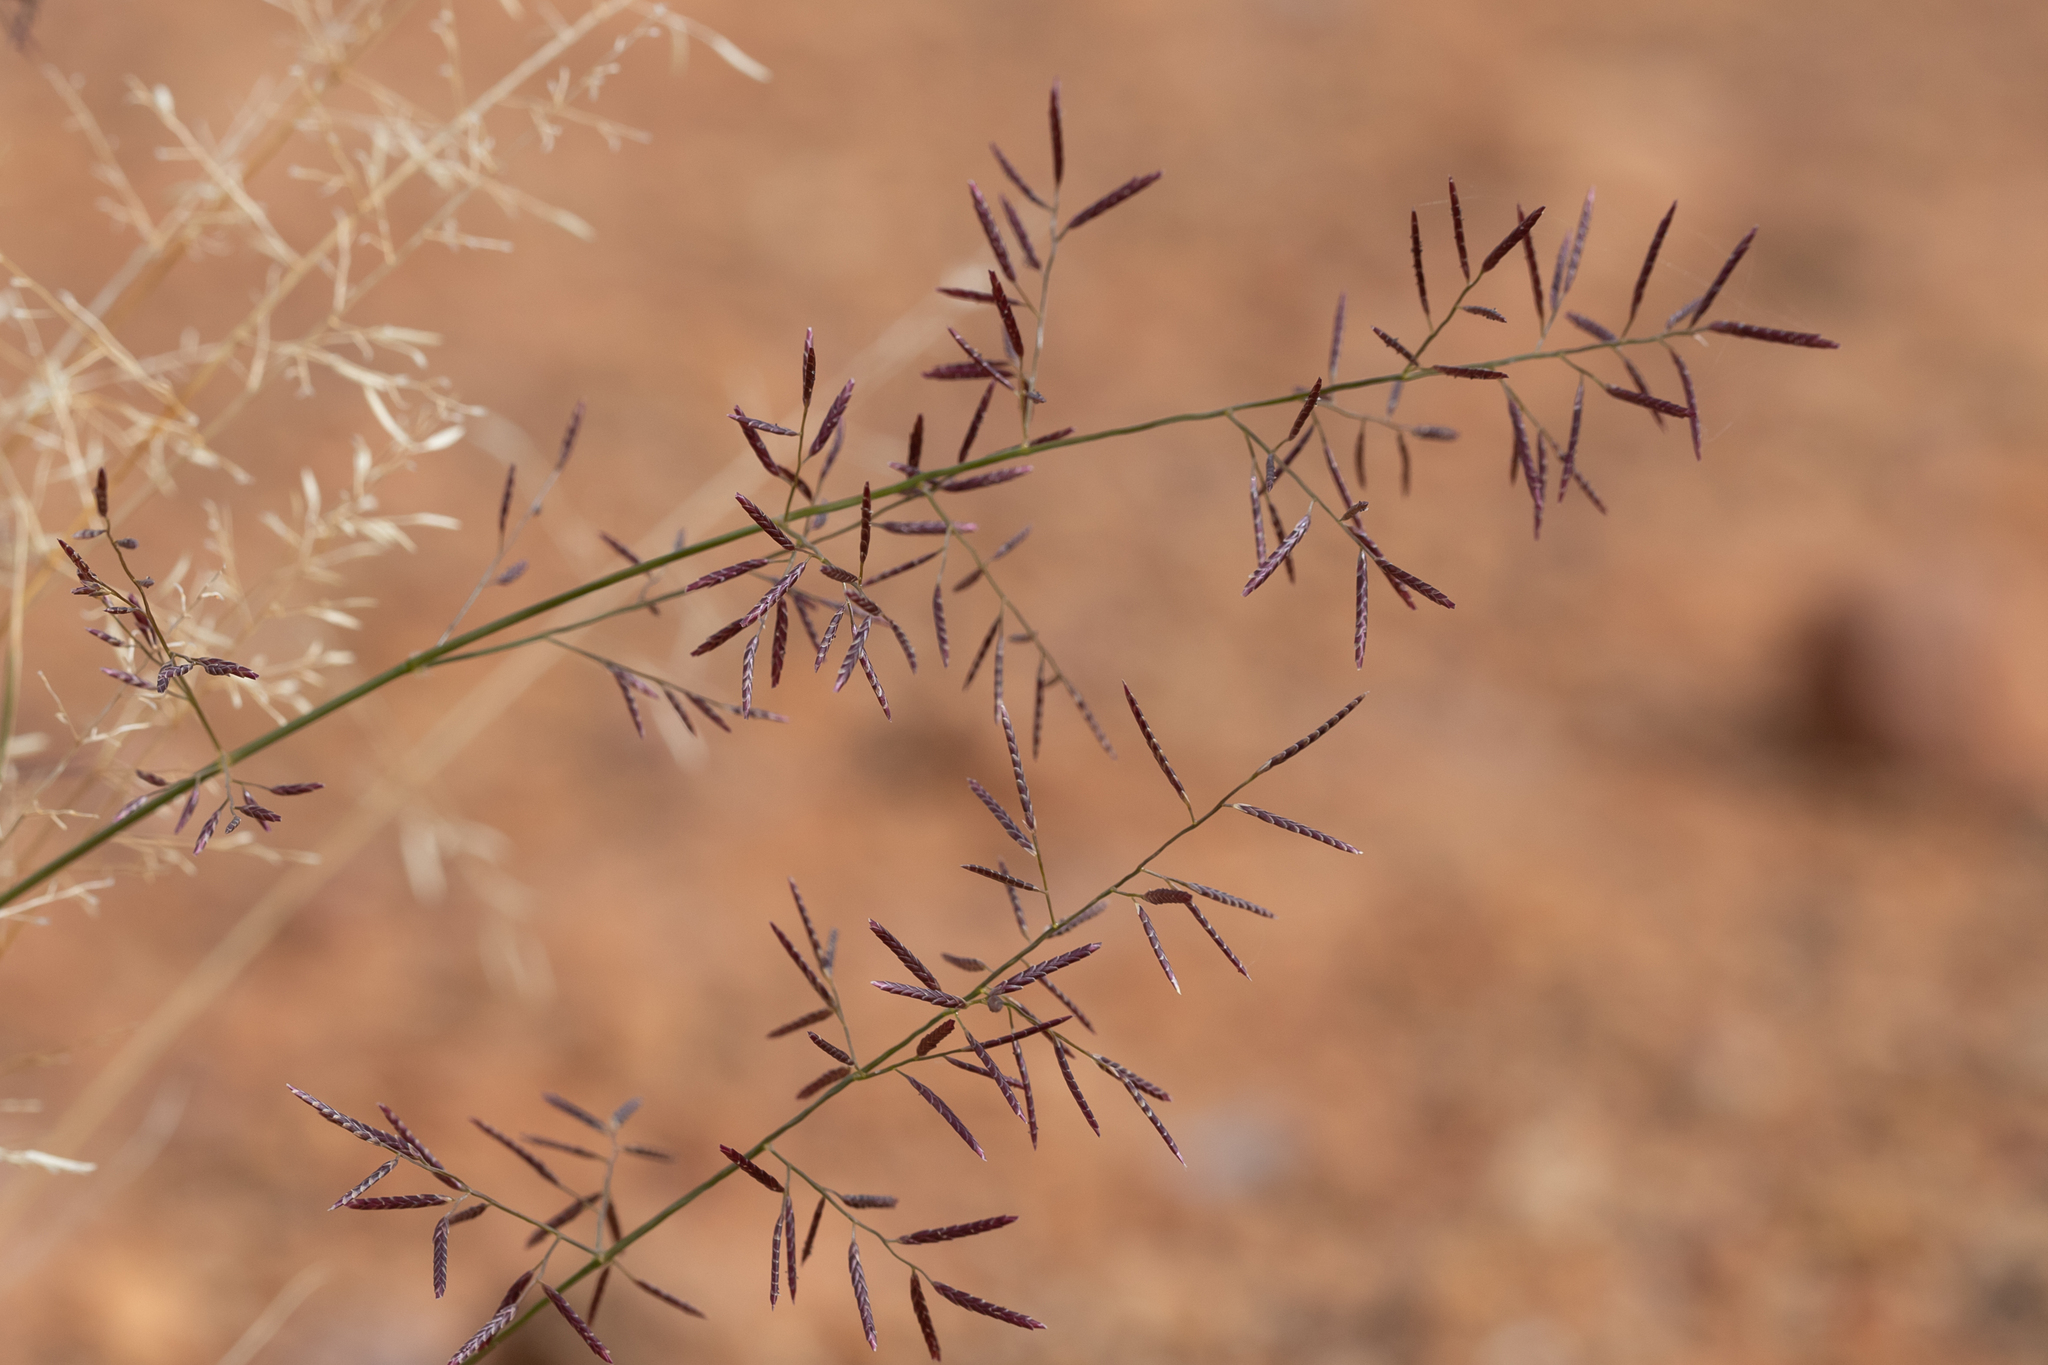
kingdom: Plantae
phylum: Tracheophyta
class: Liliopsida
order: Poales
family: Poaceae
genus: Eragrostis
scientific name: Eragrostis lacunaria
